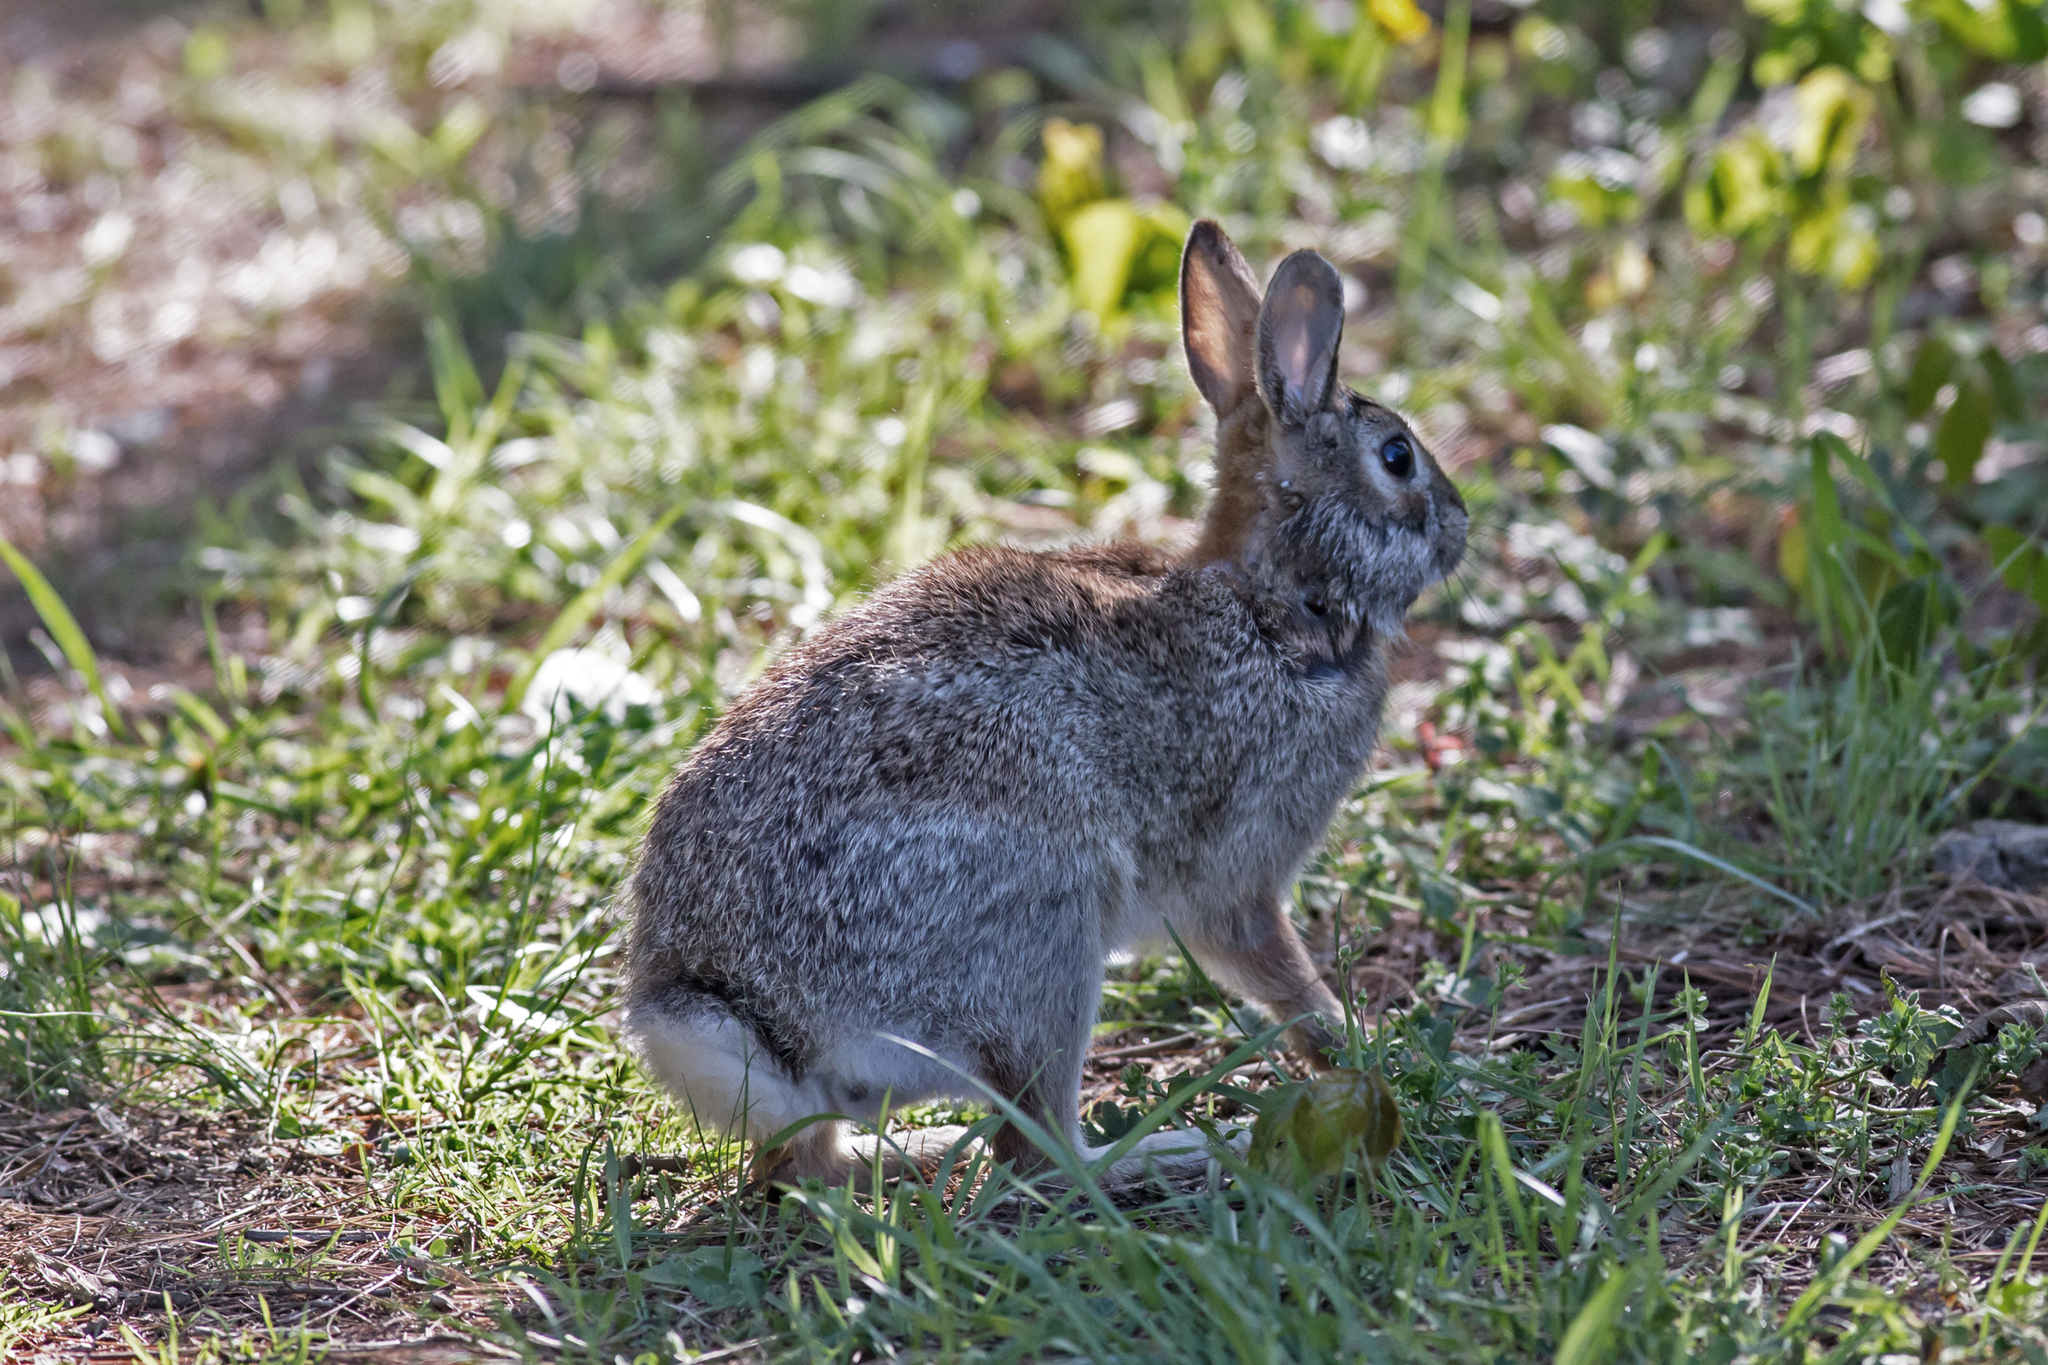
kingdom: Animalia
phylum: Chordata
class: Mammalia
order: Lagomorpha
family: Leporidae
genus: Sylvilagus
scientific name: Sylvilagus floridanus
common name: Eastern cottontail
